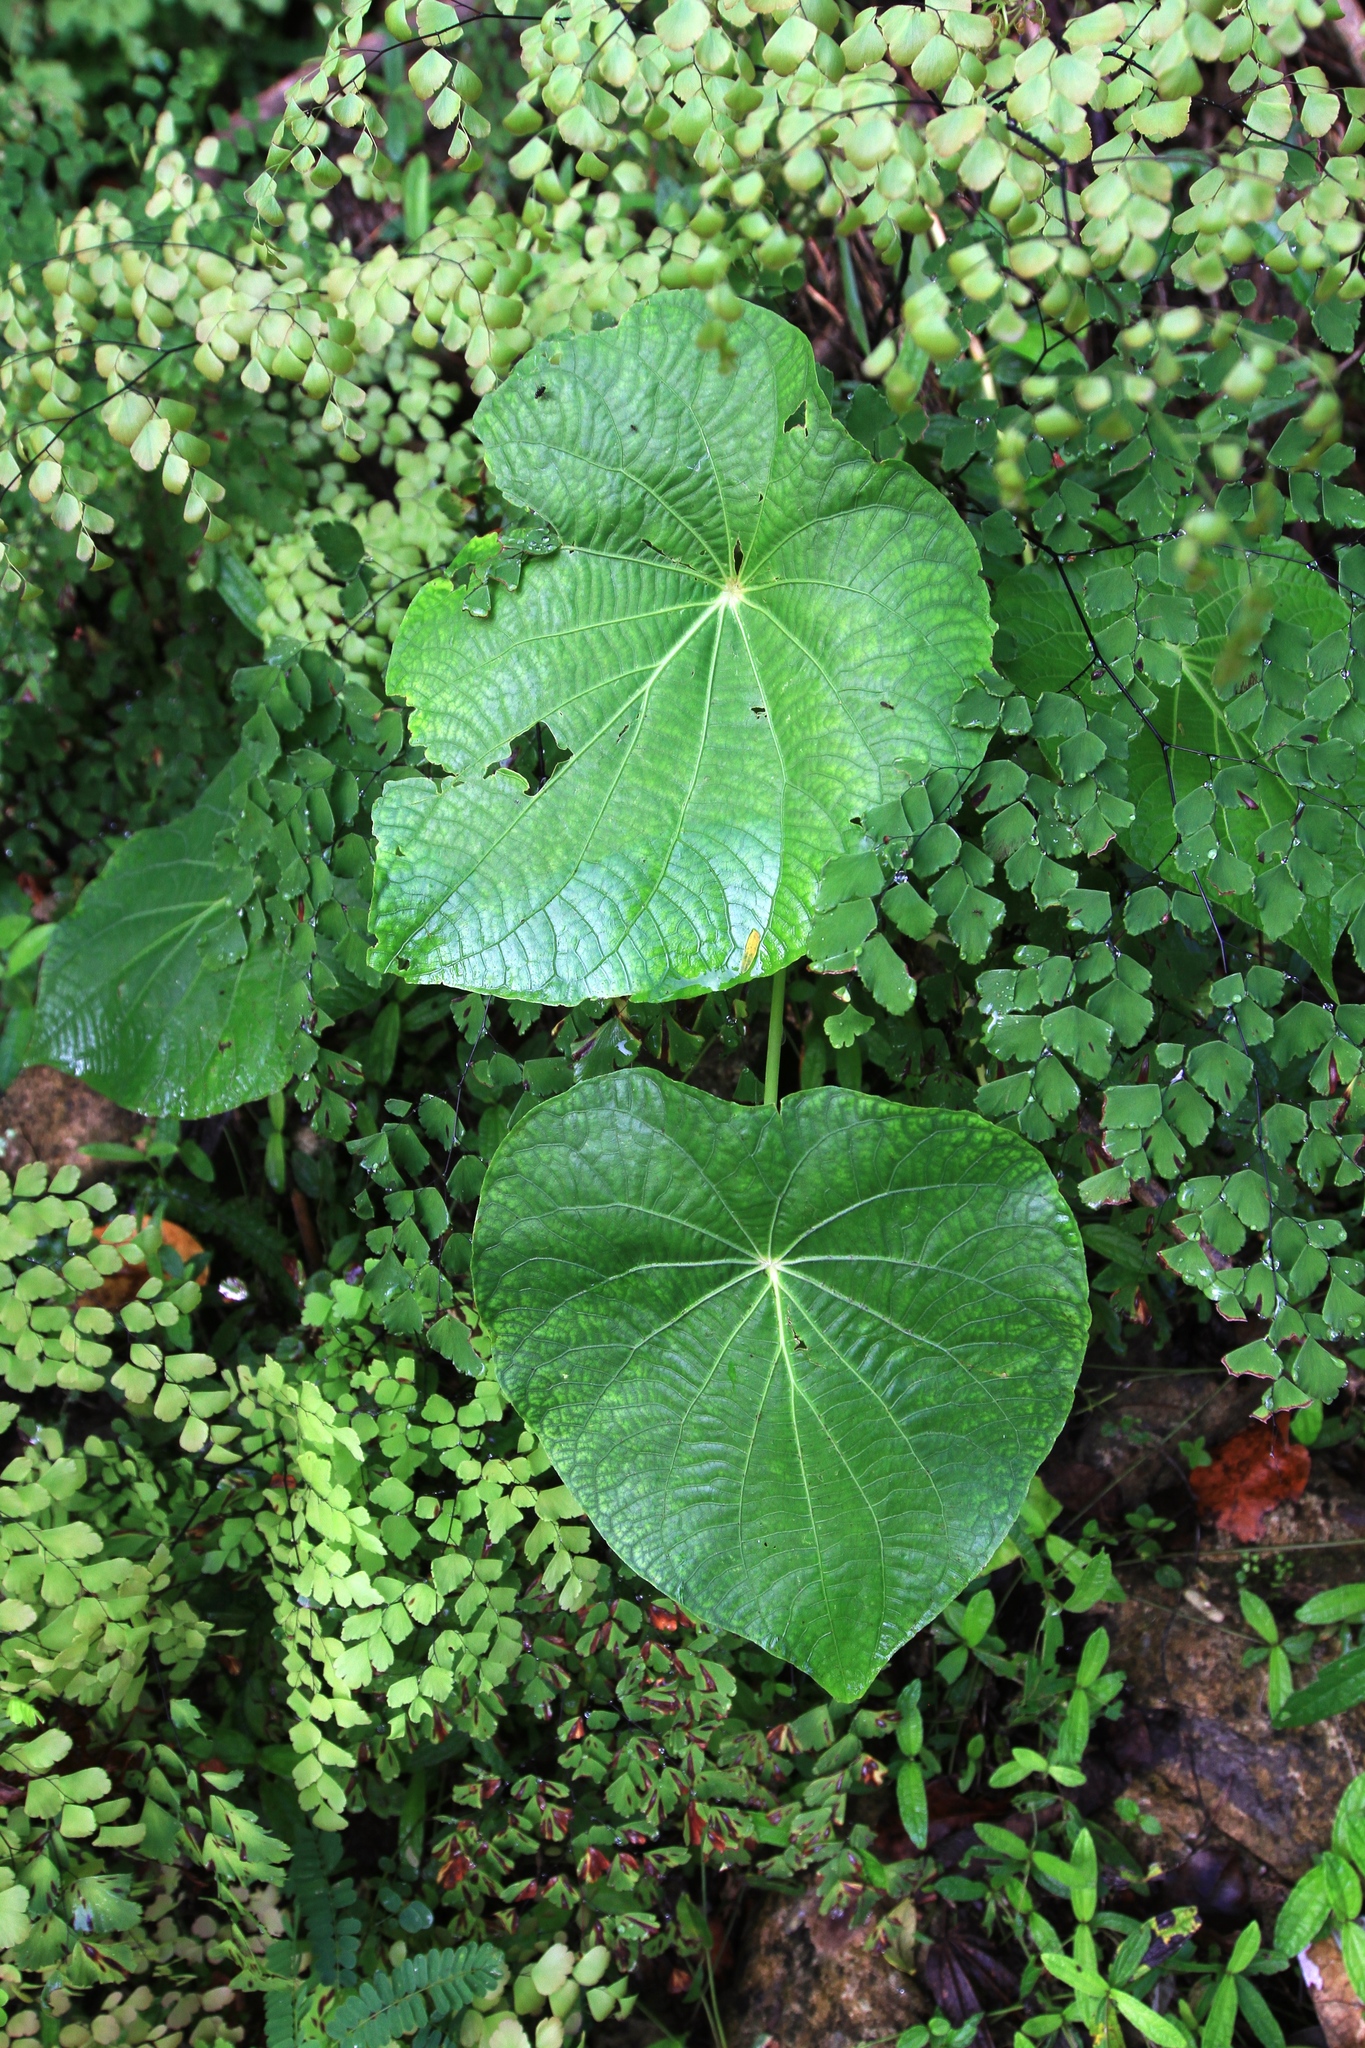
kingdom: Plantae
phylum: Tracheophyta
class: Magnoliopsida
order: Piperales
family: Piperaceae
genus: Piper
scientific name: Piper peltatum
